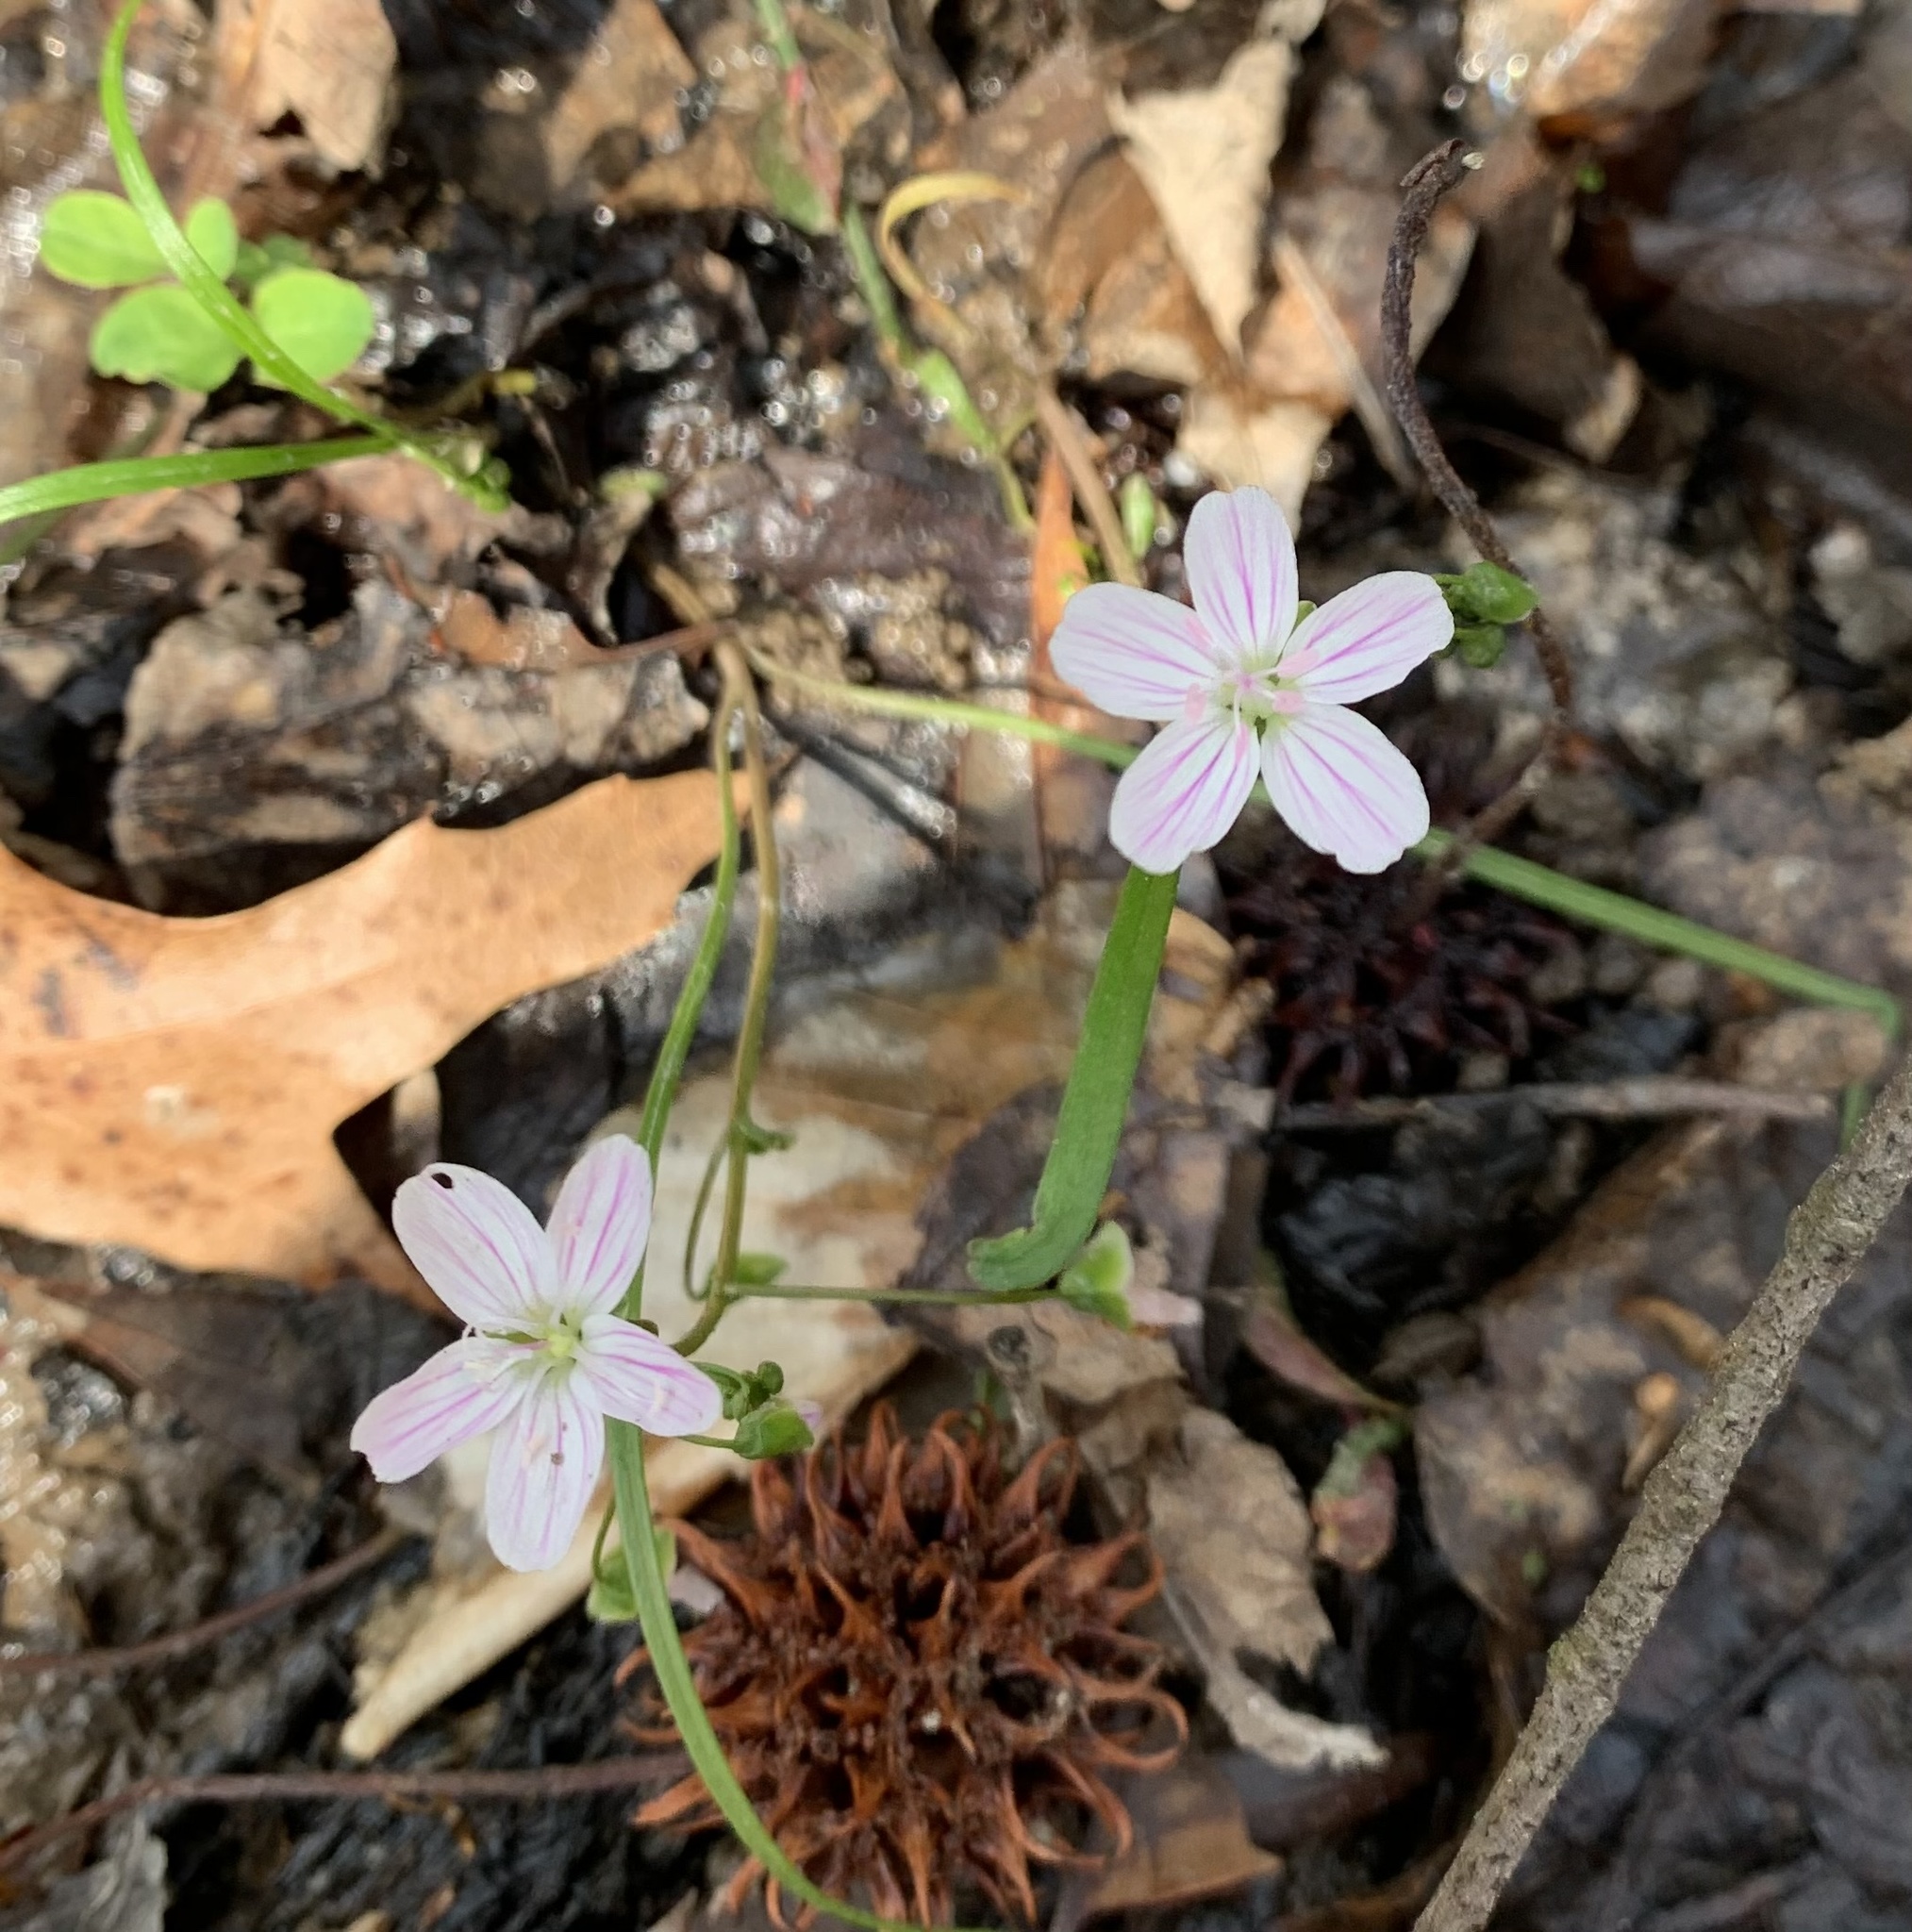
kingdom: Plantae
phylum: Tracheophyta
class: Magnoliopsida
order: Caryophyllales
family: Montiaceae
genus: Claytonia
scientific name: Claytonia virginica
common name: Virginia springbeauty
